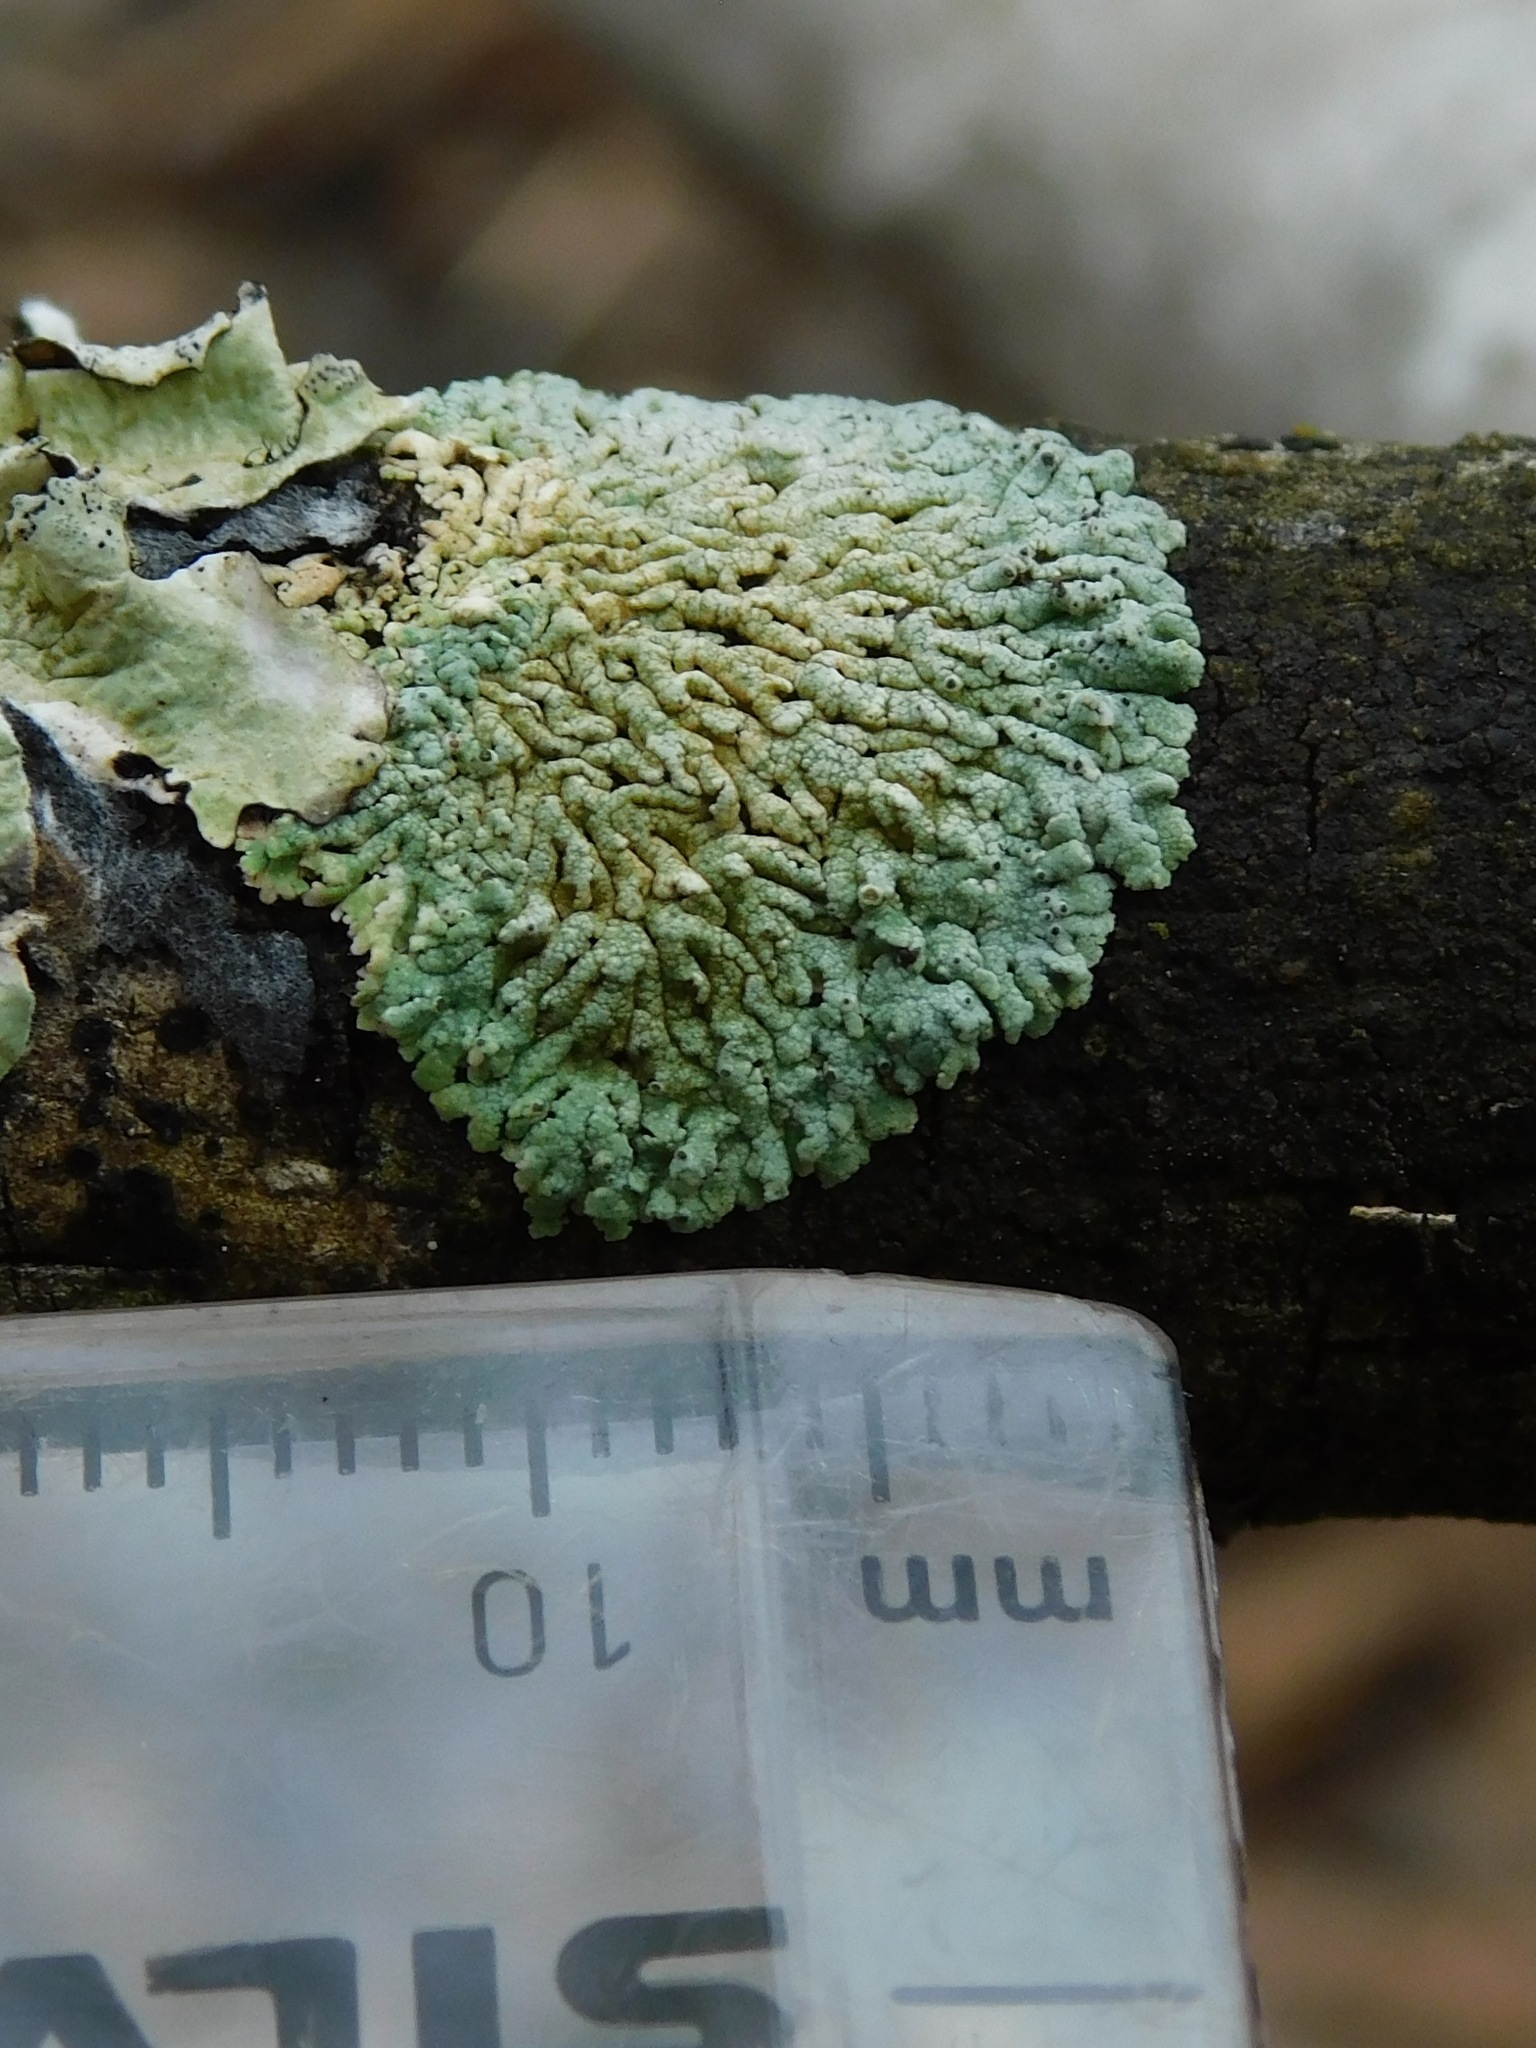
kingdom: Fungi
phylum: Ascomycota
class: Lecanoromycetes
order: Caliciales
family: Physciaceae
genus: Physcia
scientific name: Physcia alnophila
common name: Outward-looking rosette lichen
